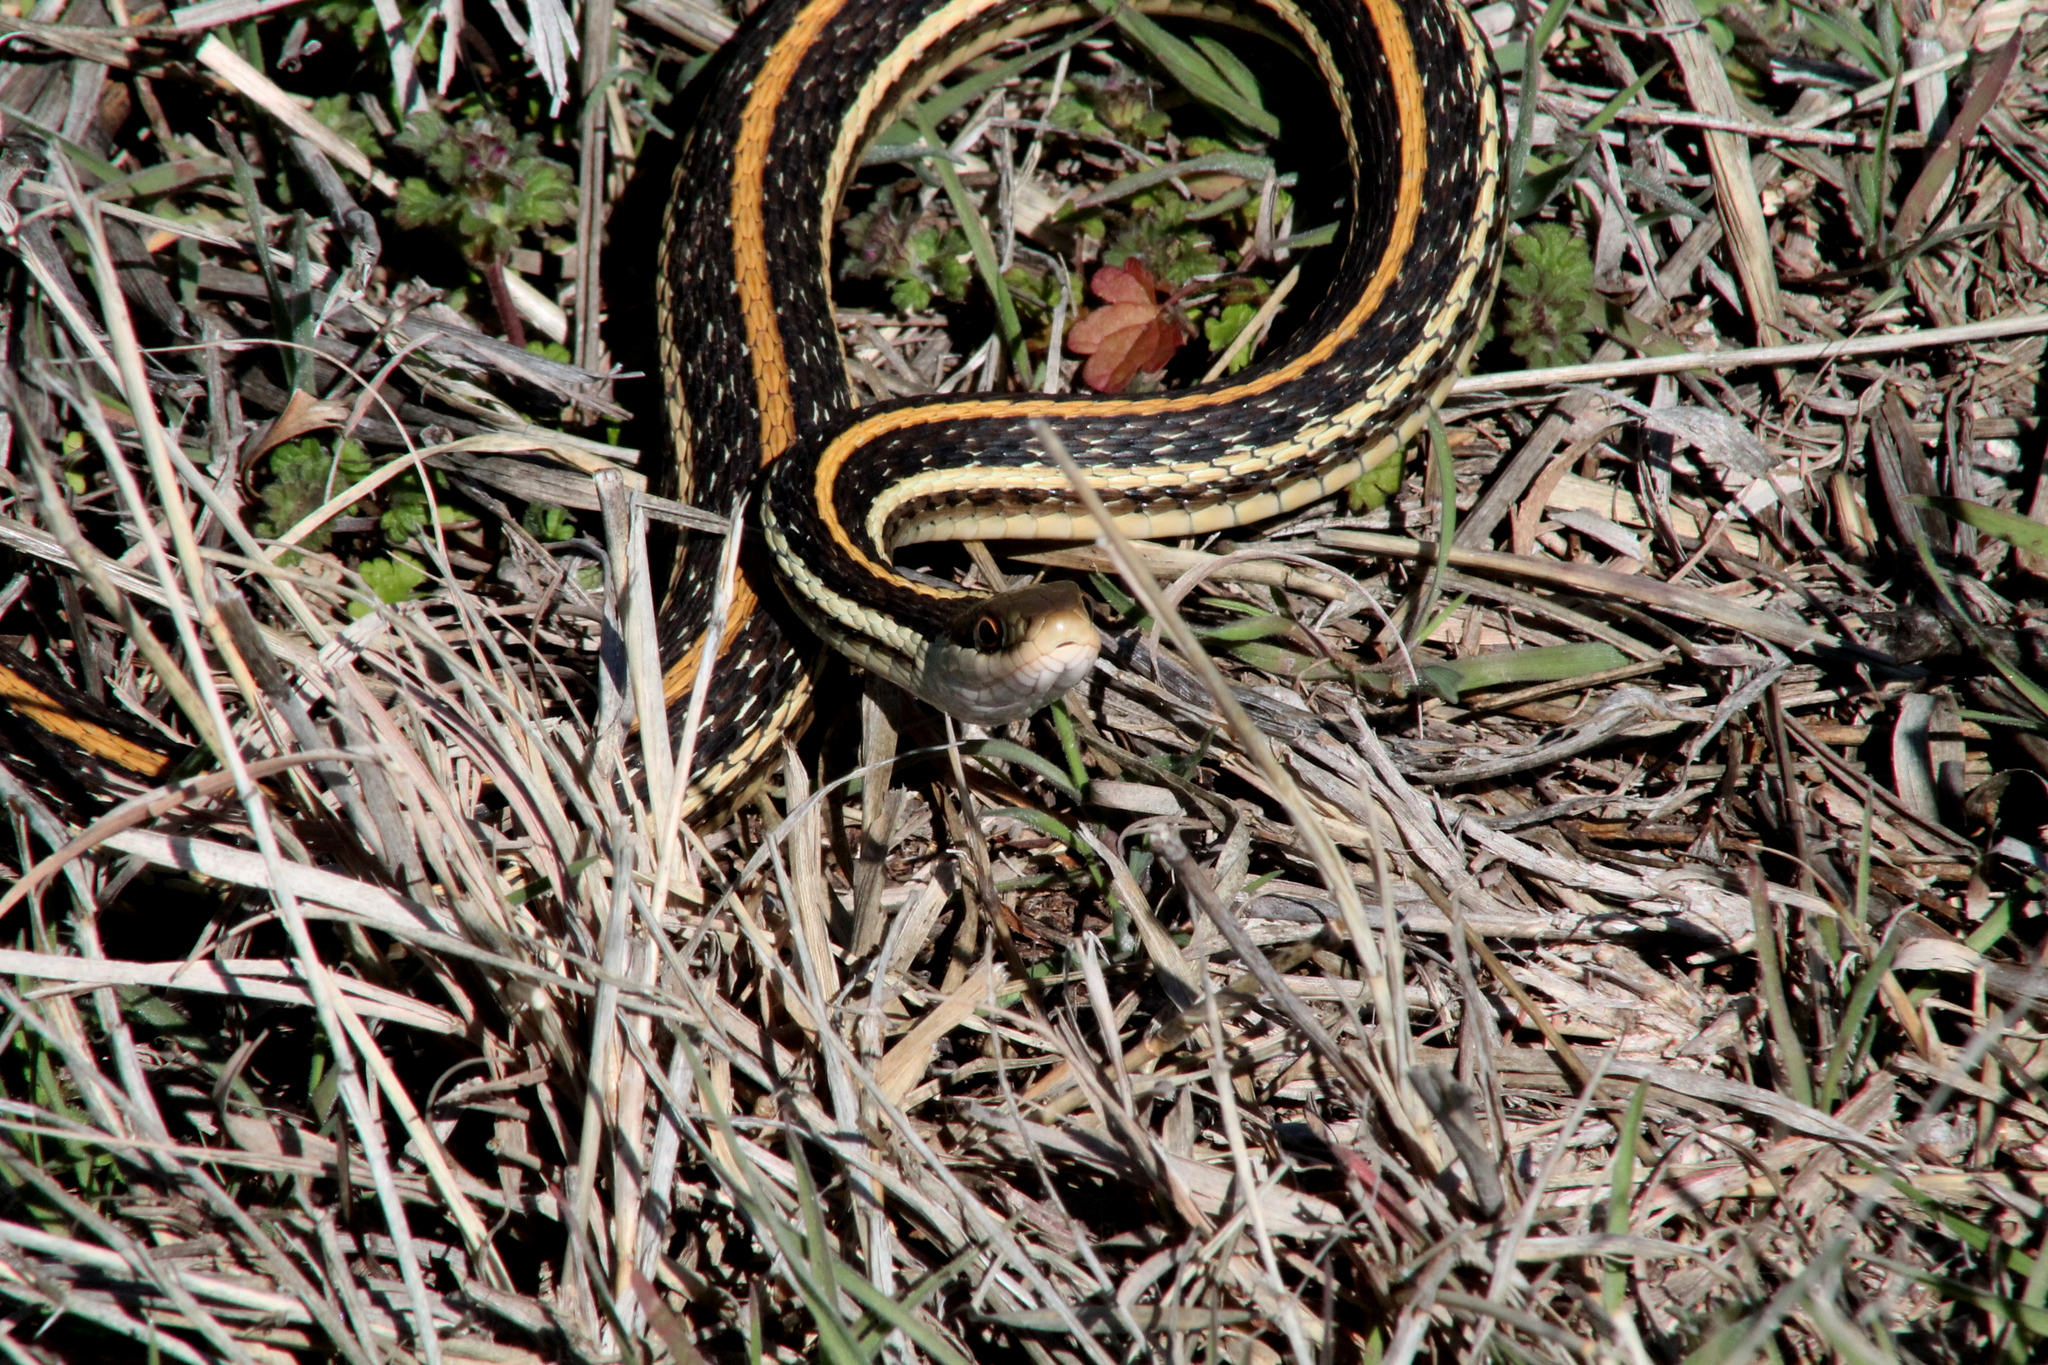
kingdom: Animalia
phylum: Chordata
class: Squamata
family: Colubridae
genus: Thamnophis
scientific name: Thamnophis proximus
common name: Western ribbon snake
